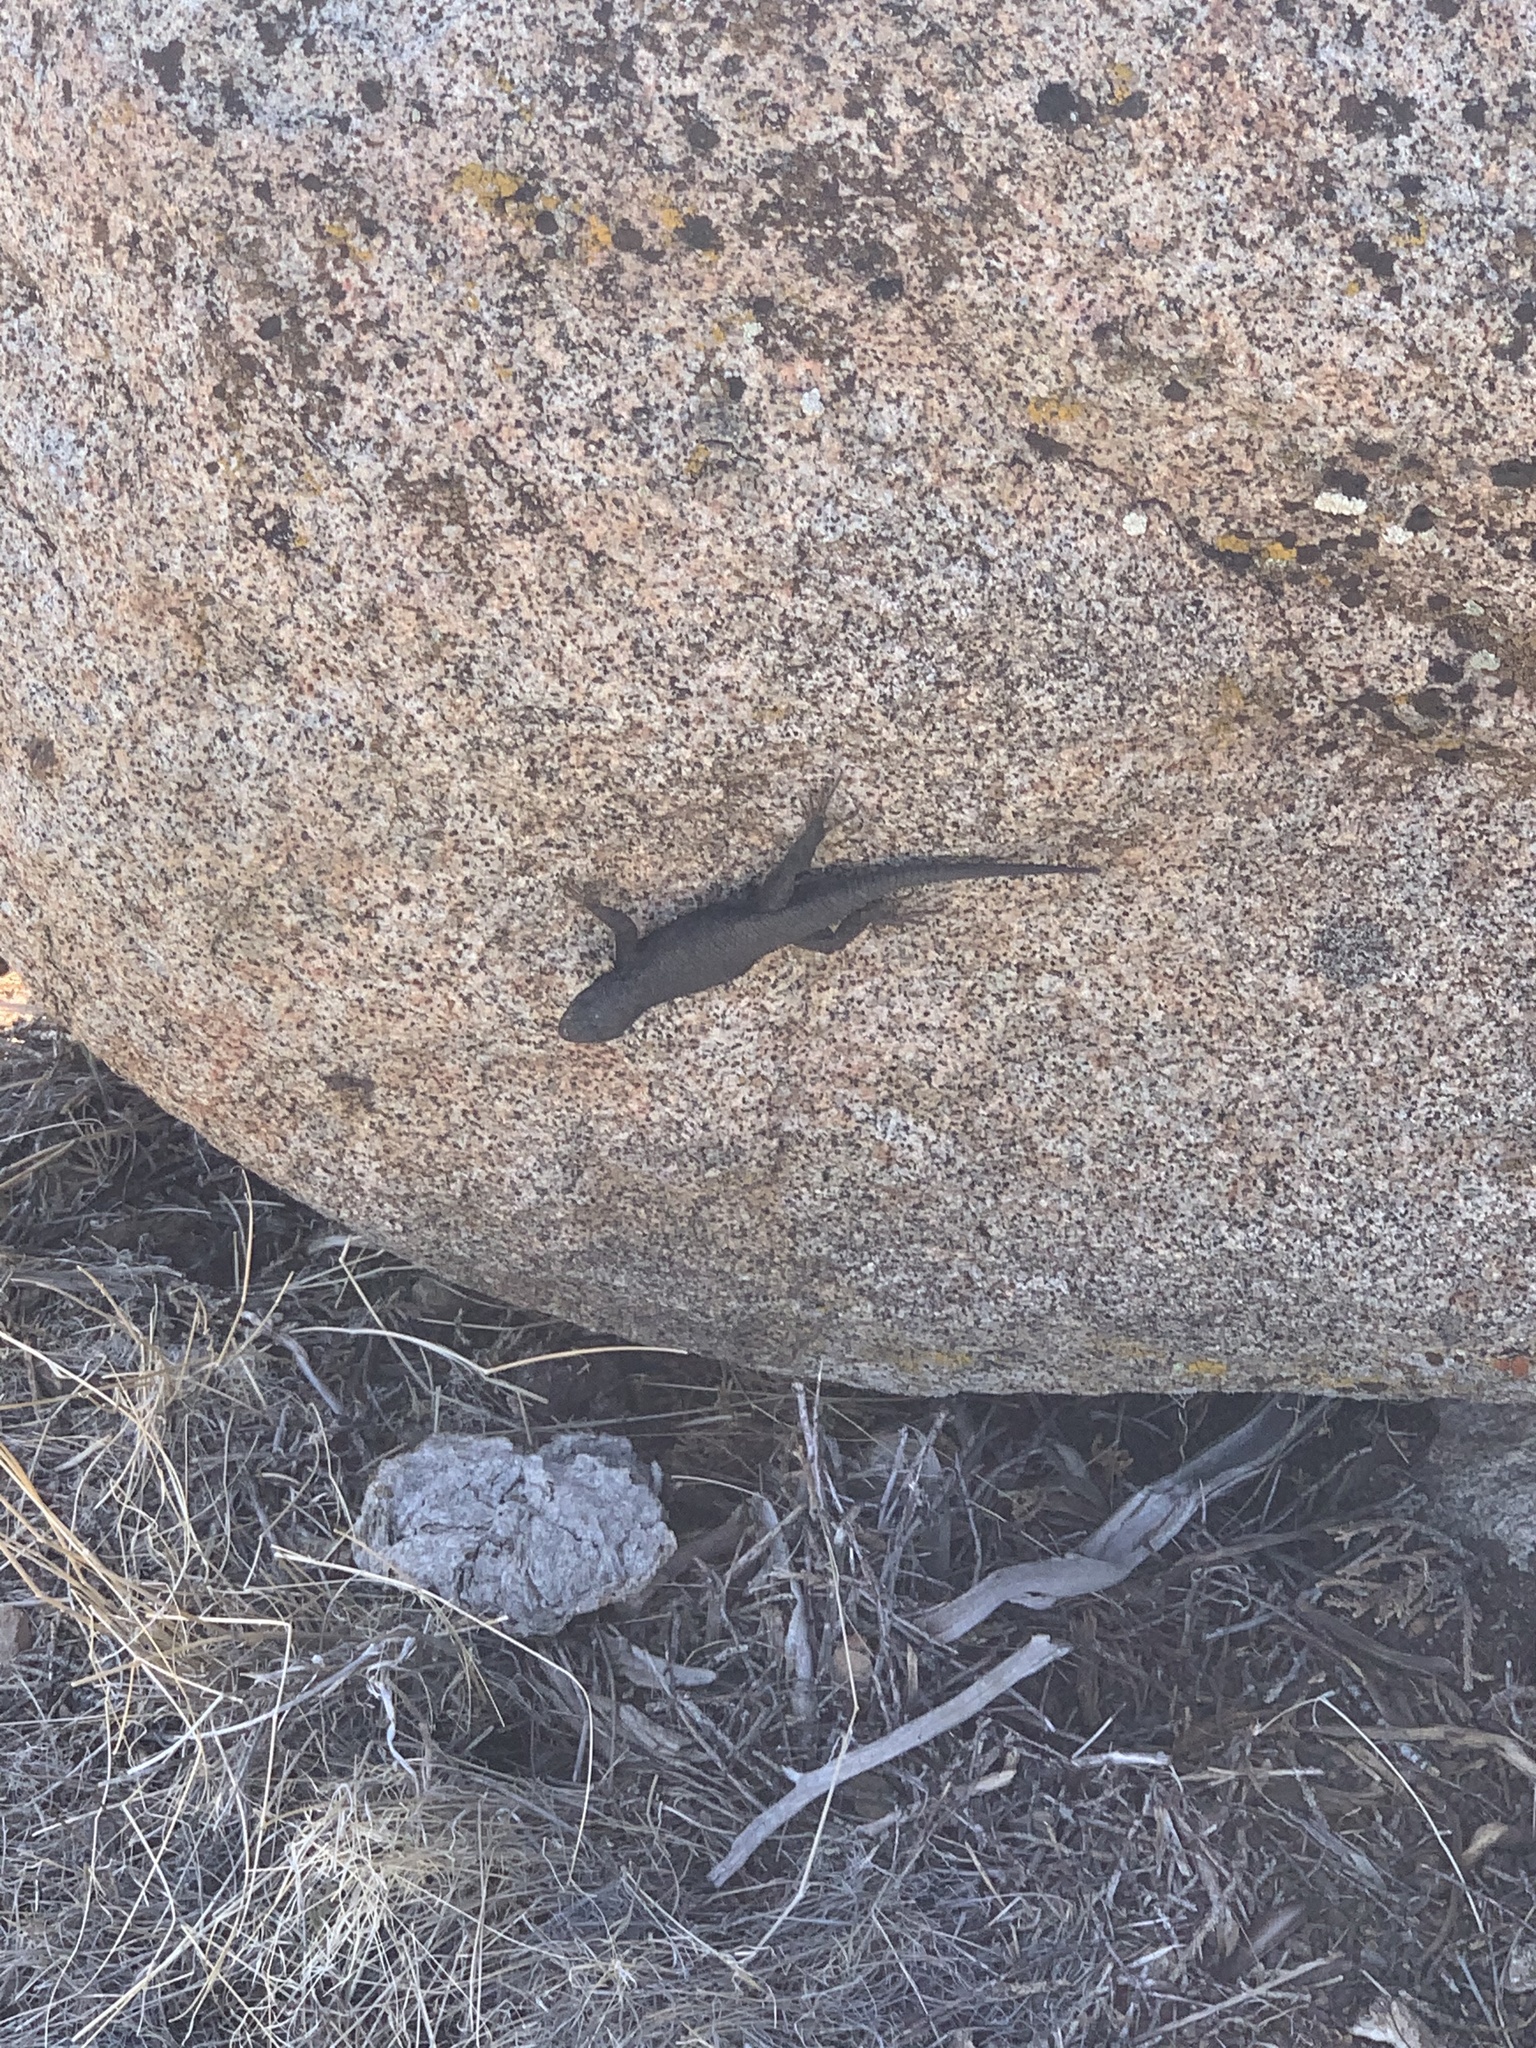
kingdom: Animalia
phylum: Chordata
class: Squamata
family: Phrynosomatidae
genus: Sceloporus
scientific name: Sceloporus occidentalis
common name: Western fence lizard
